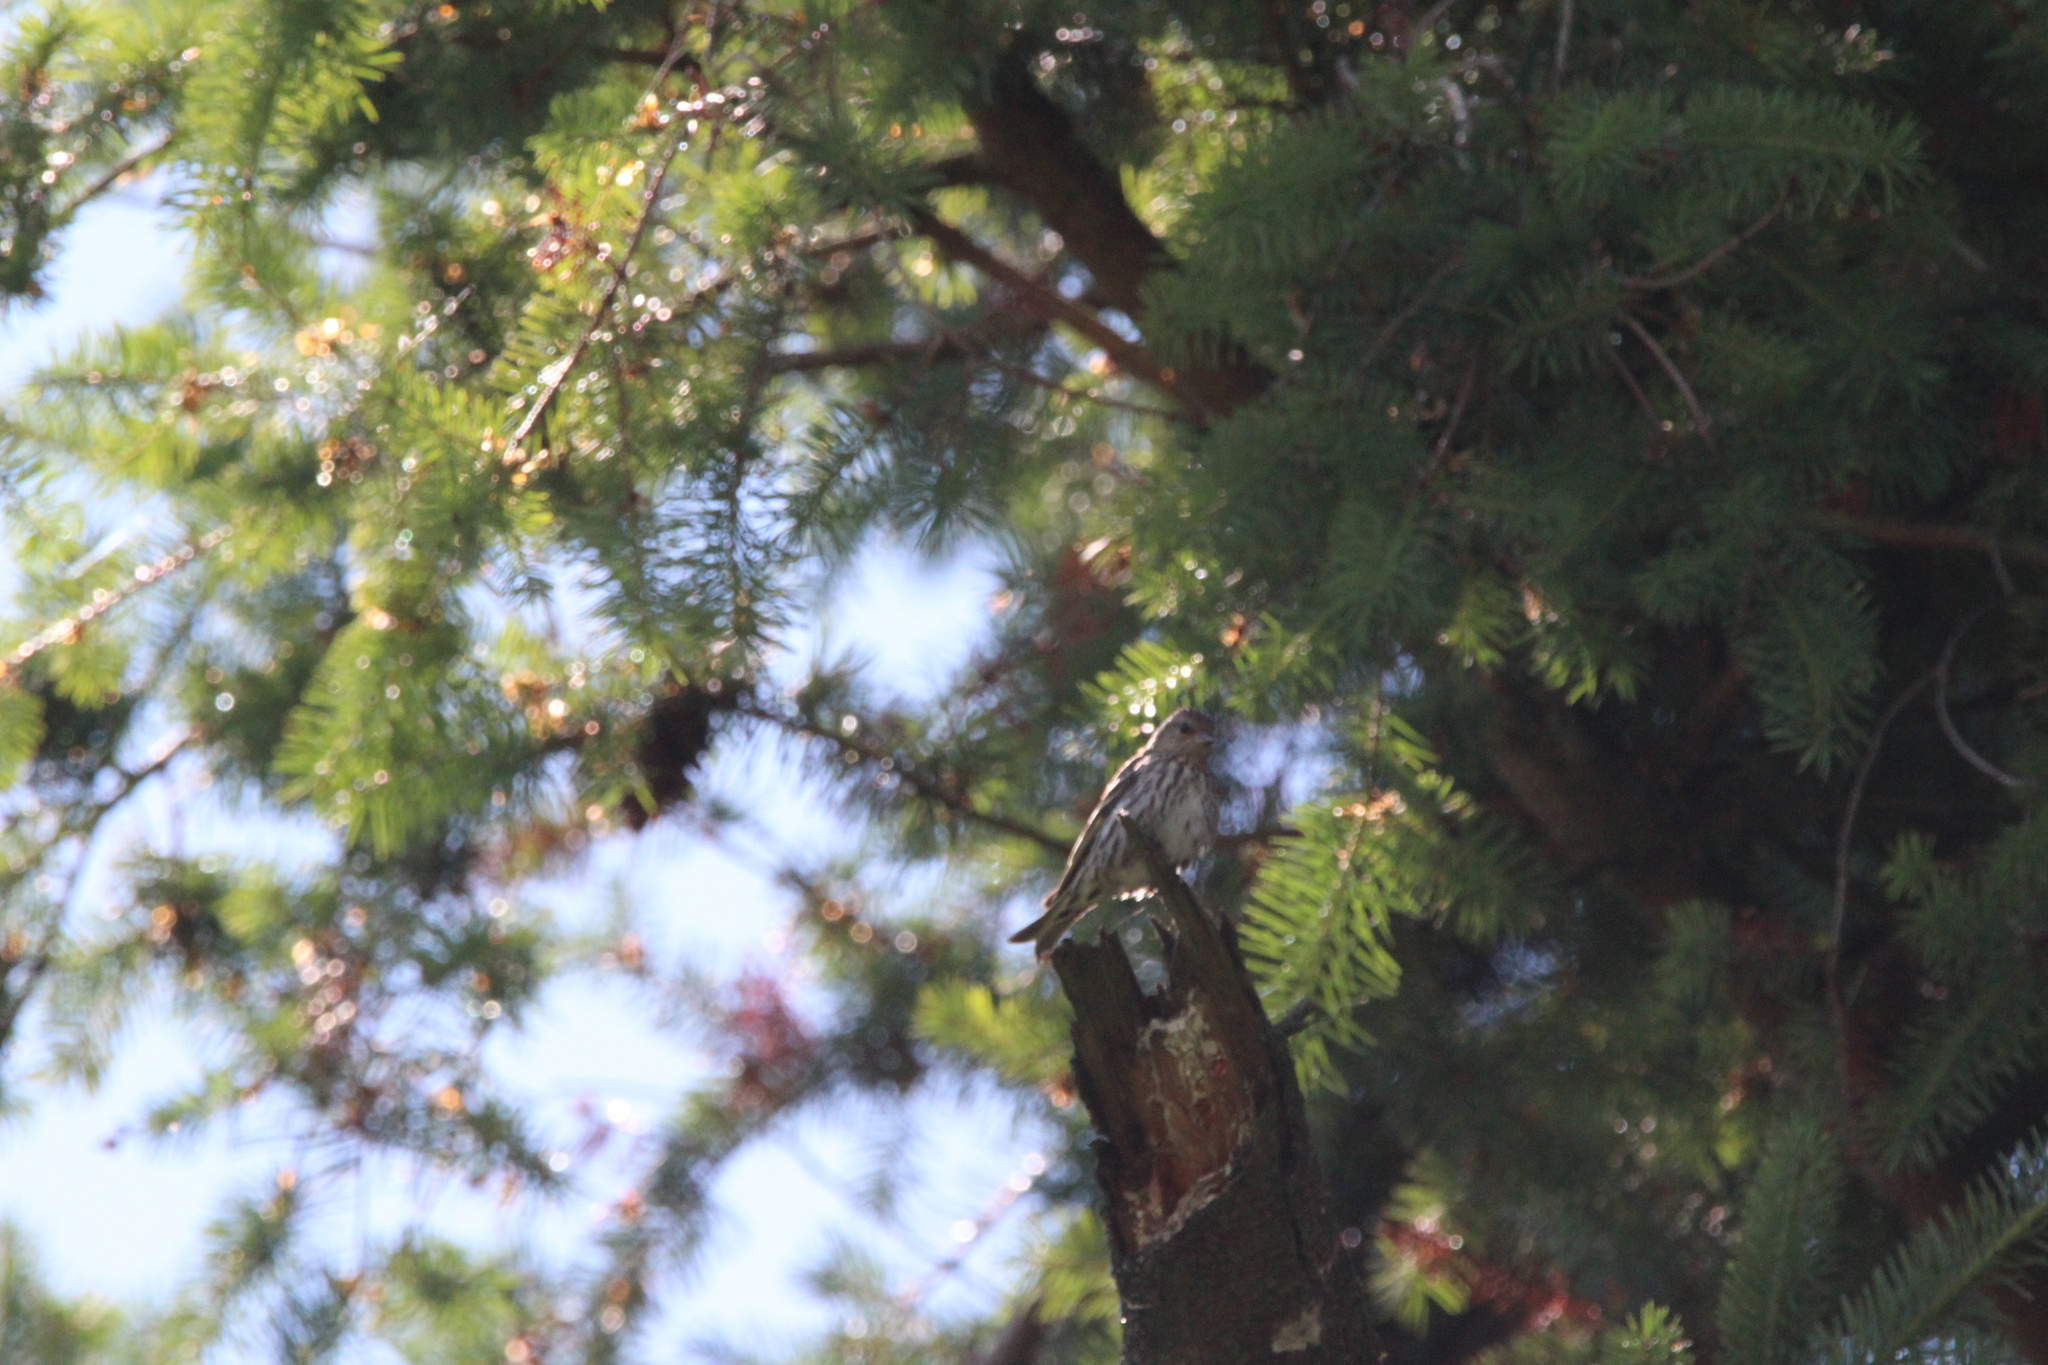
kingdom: Animalia
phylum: Chordata
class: Aves
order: Passeriformes
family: Fringillidae
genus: Spinus
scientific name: Spinus pinus
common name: Pine siskin
